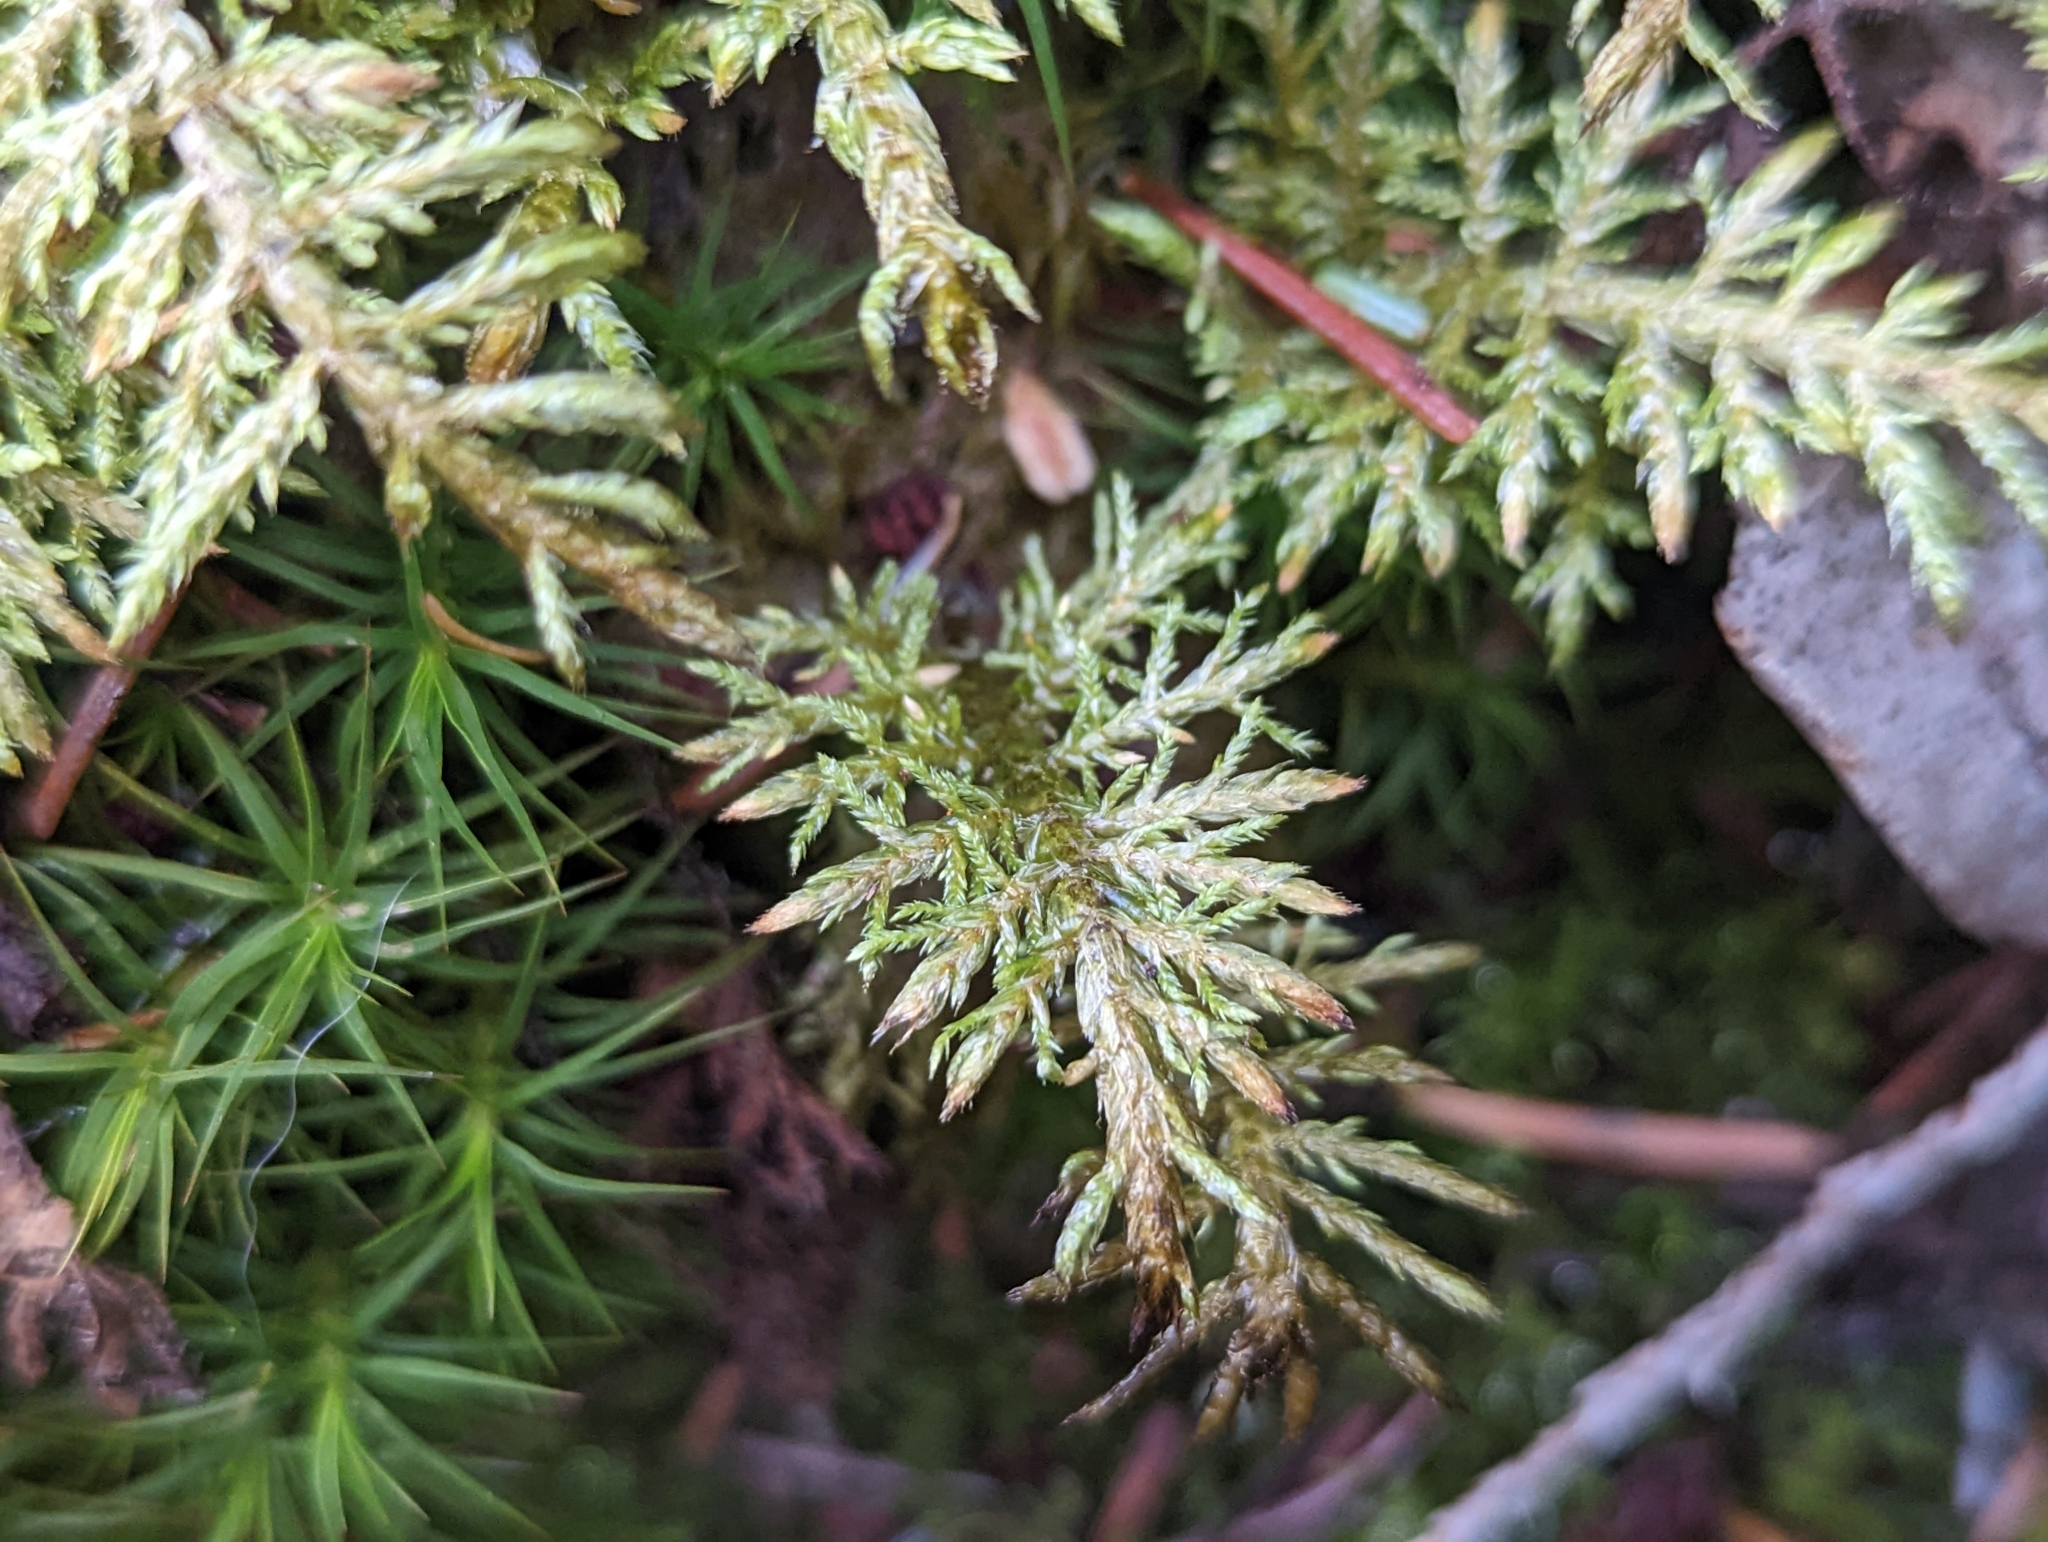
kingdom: Plantae
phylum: Bryophyta
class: Bryopsida
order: Hypnales
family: Hylocomiaceae
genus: Hylocomium
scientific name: Hylocomium splendens
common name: Stairstep moss
